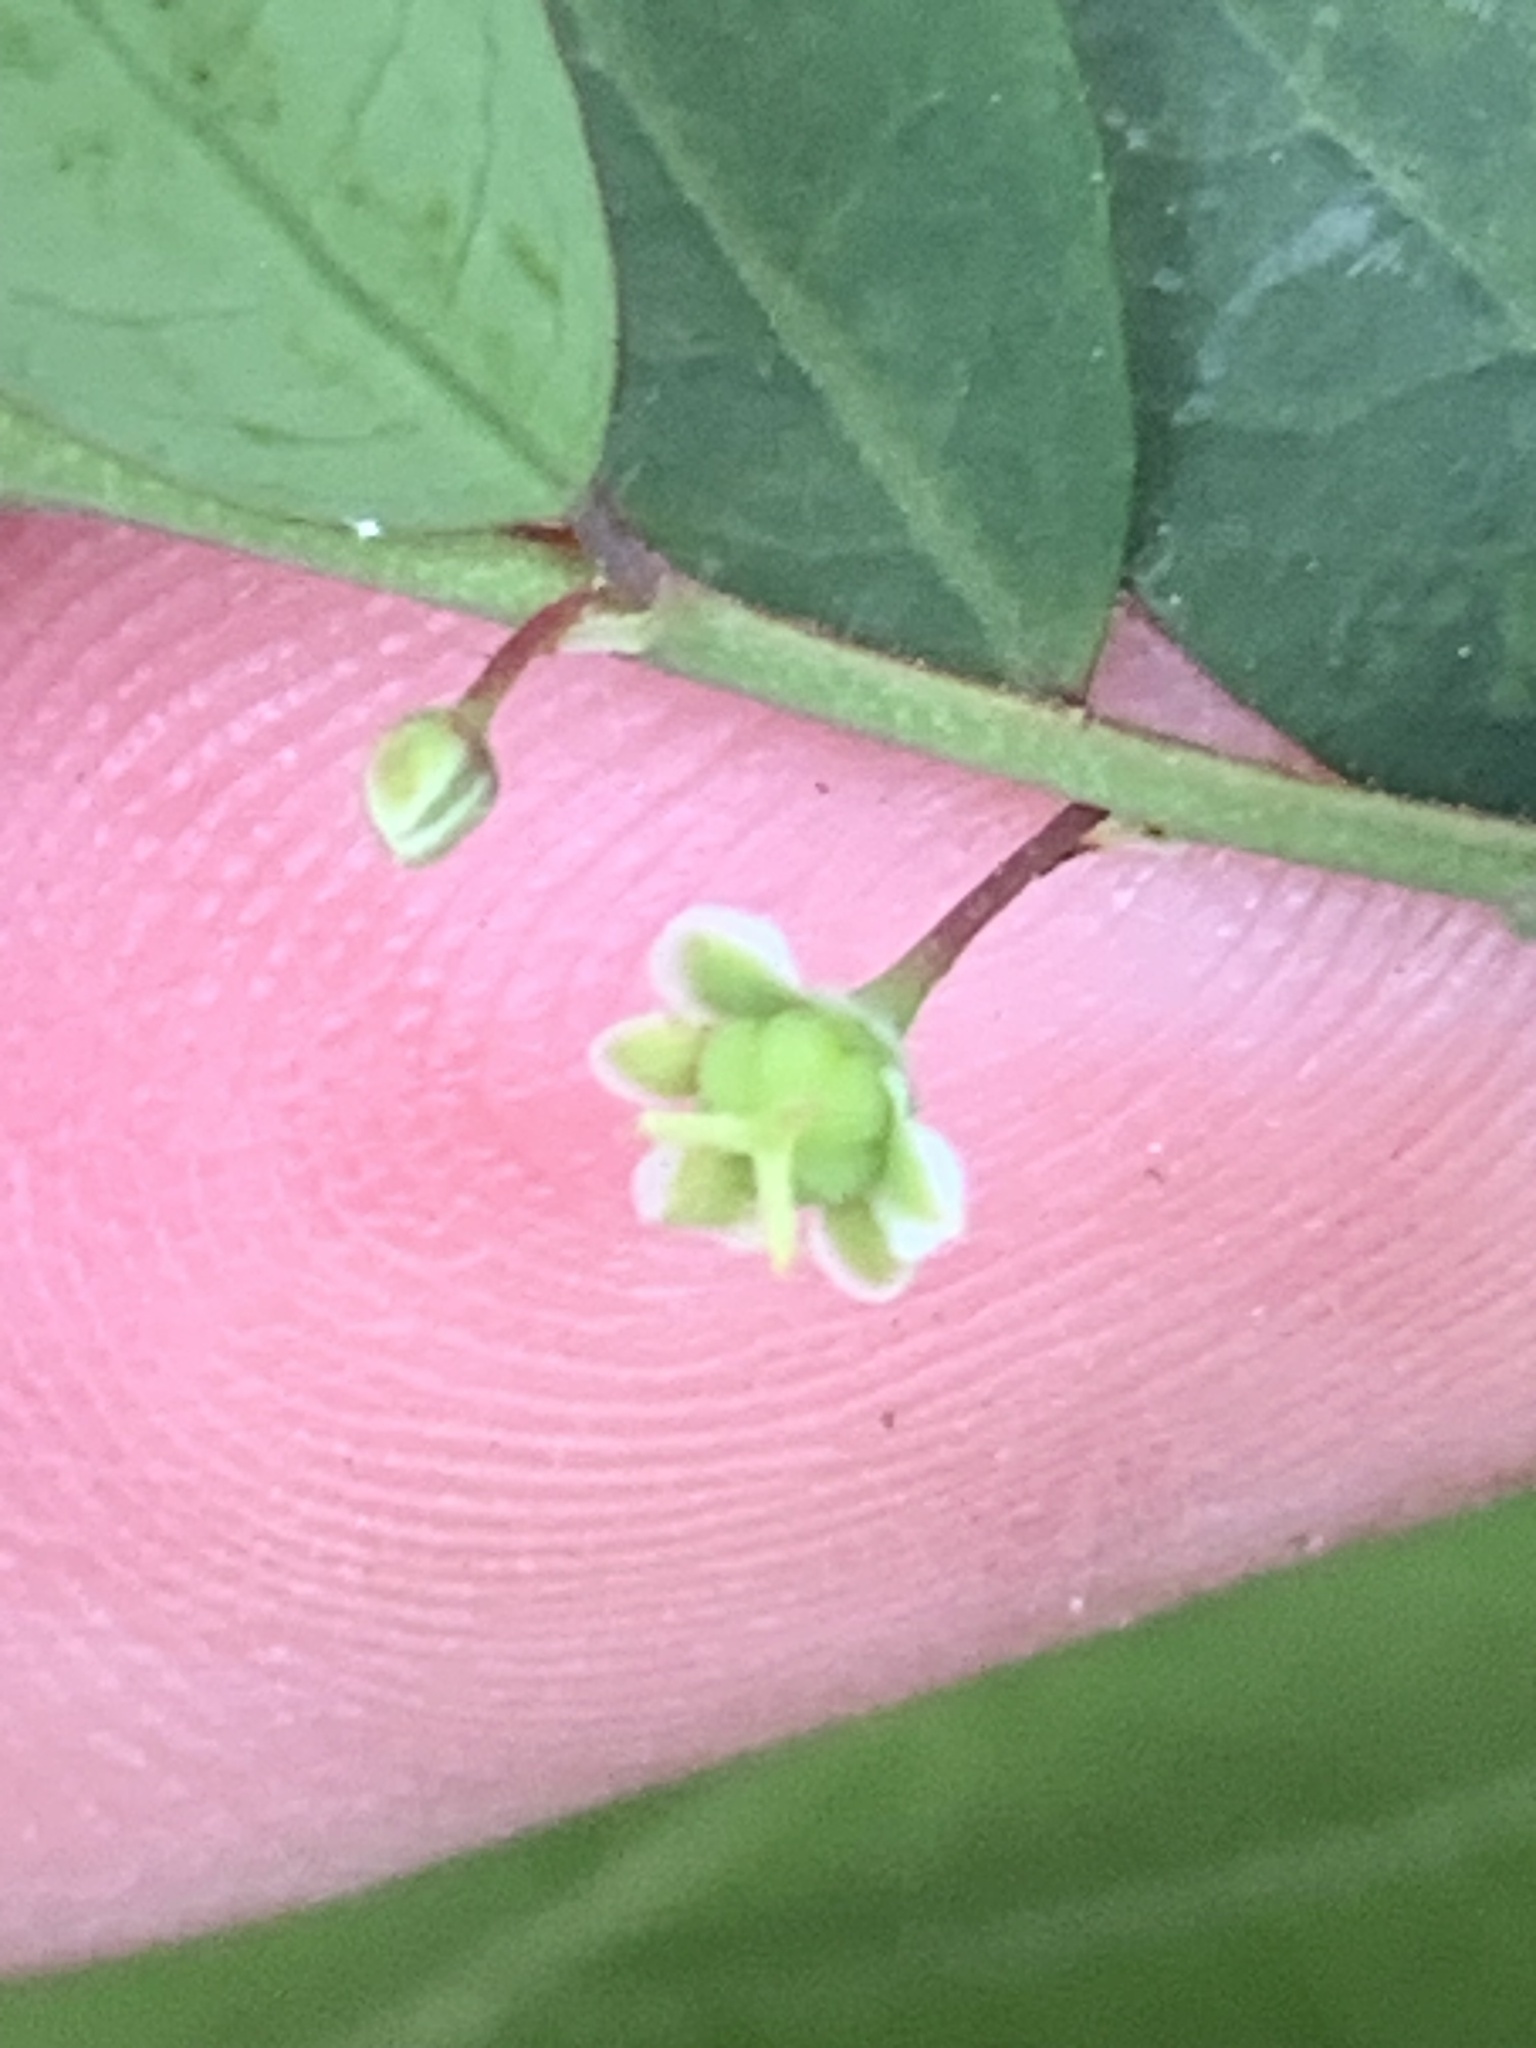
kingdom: Plantae
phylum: Tracheophyta
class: Magnoliopsida
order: Malpighiales
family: Phyllanthaceae
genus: Phyllanthus
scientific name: Phyllanthus gunnii
